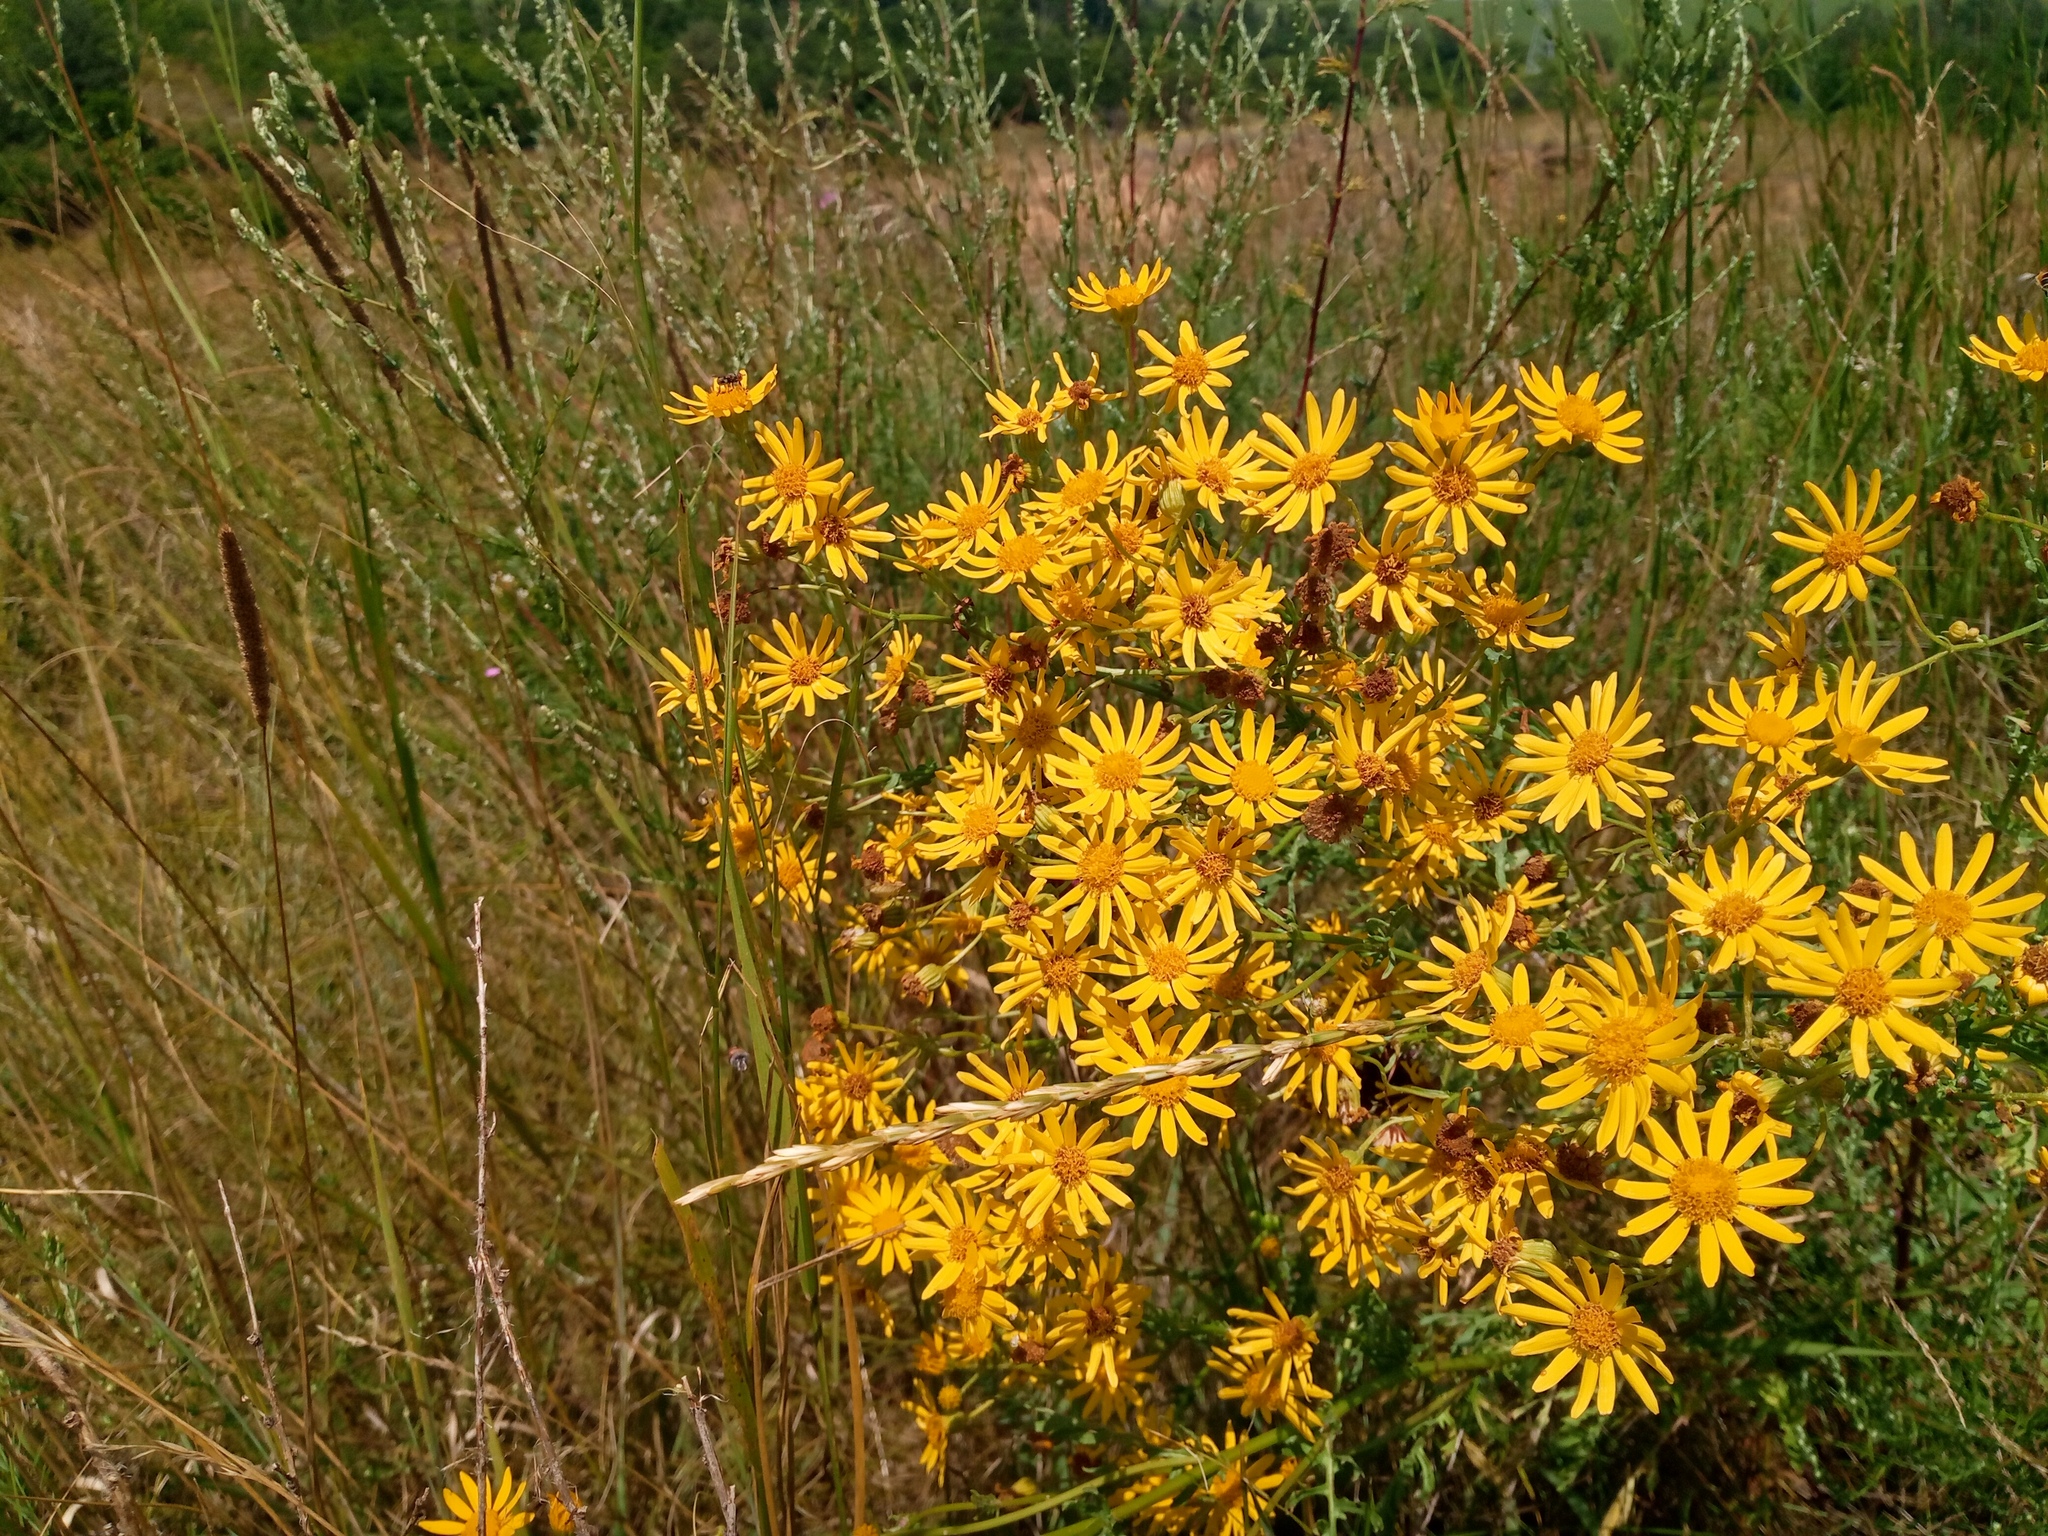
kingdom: Plantae
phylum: Tracheophyta
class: Magnoliopsida
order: Asterales
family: Asteraceae
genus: Jacobaea
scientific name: Jacobaea vulgaris
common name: Stinking willie
